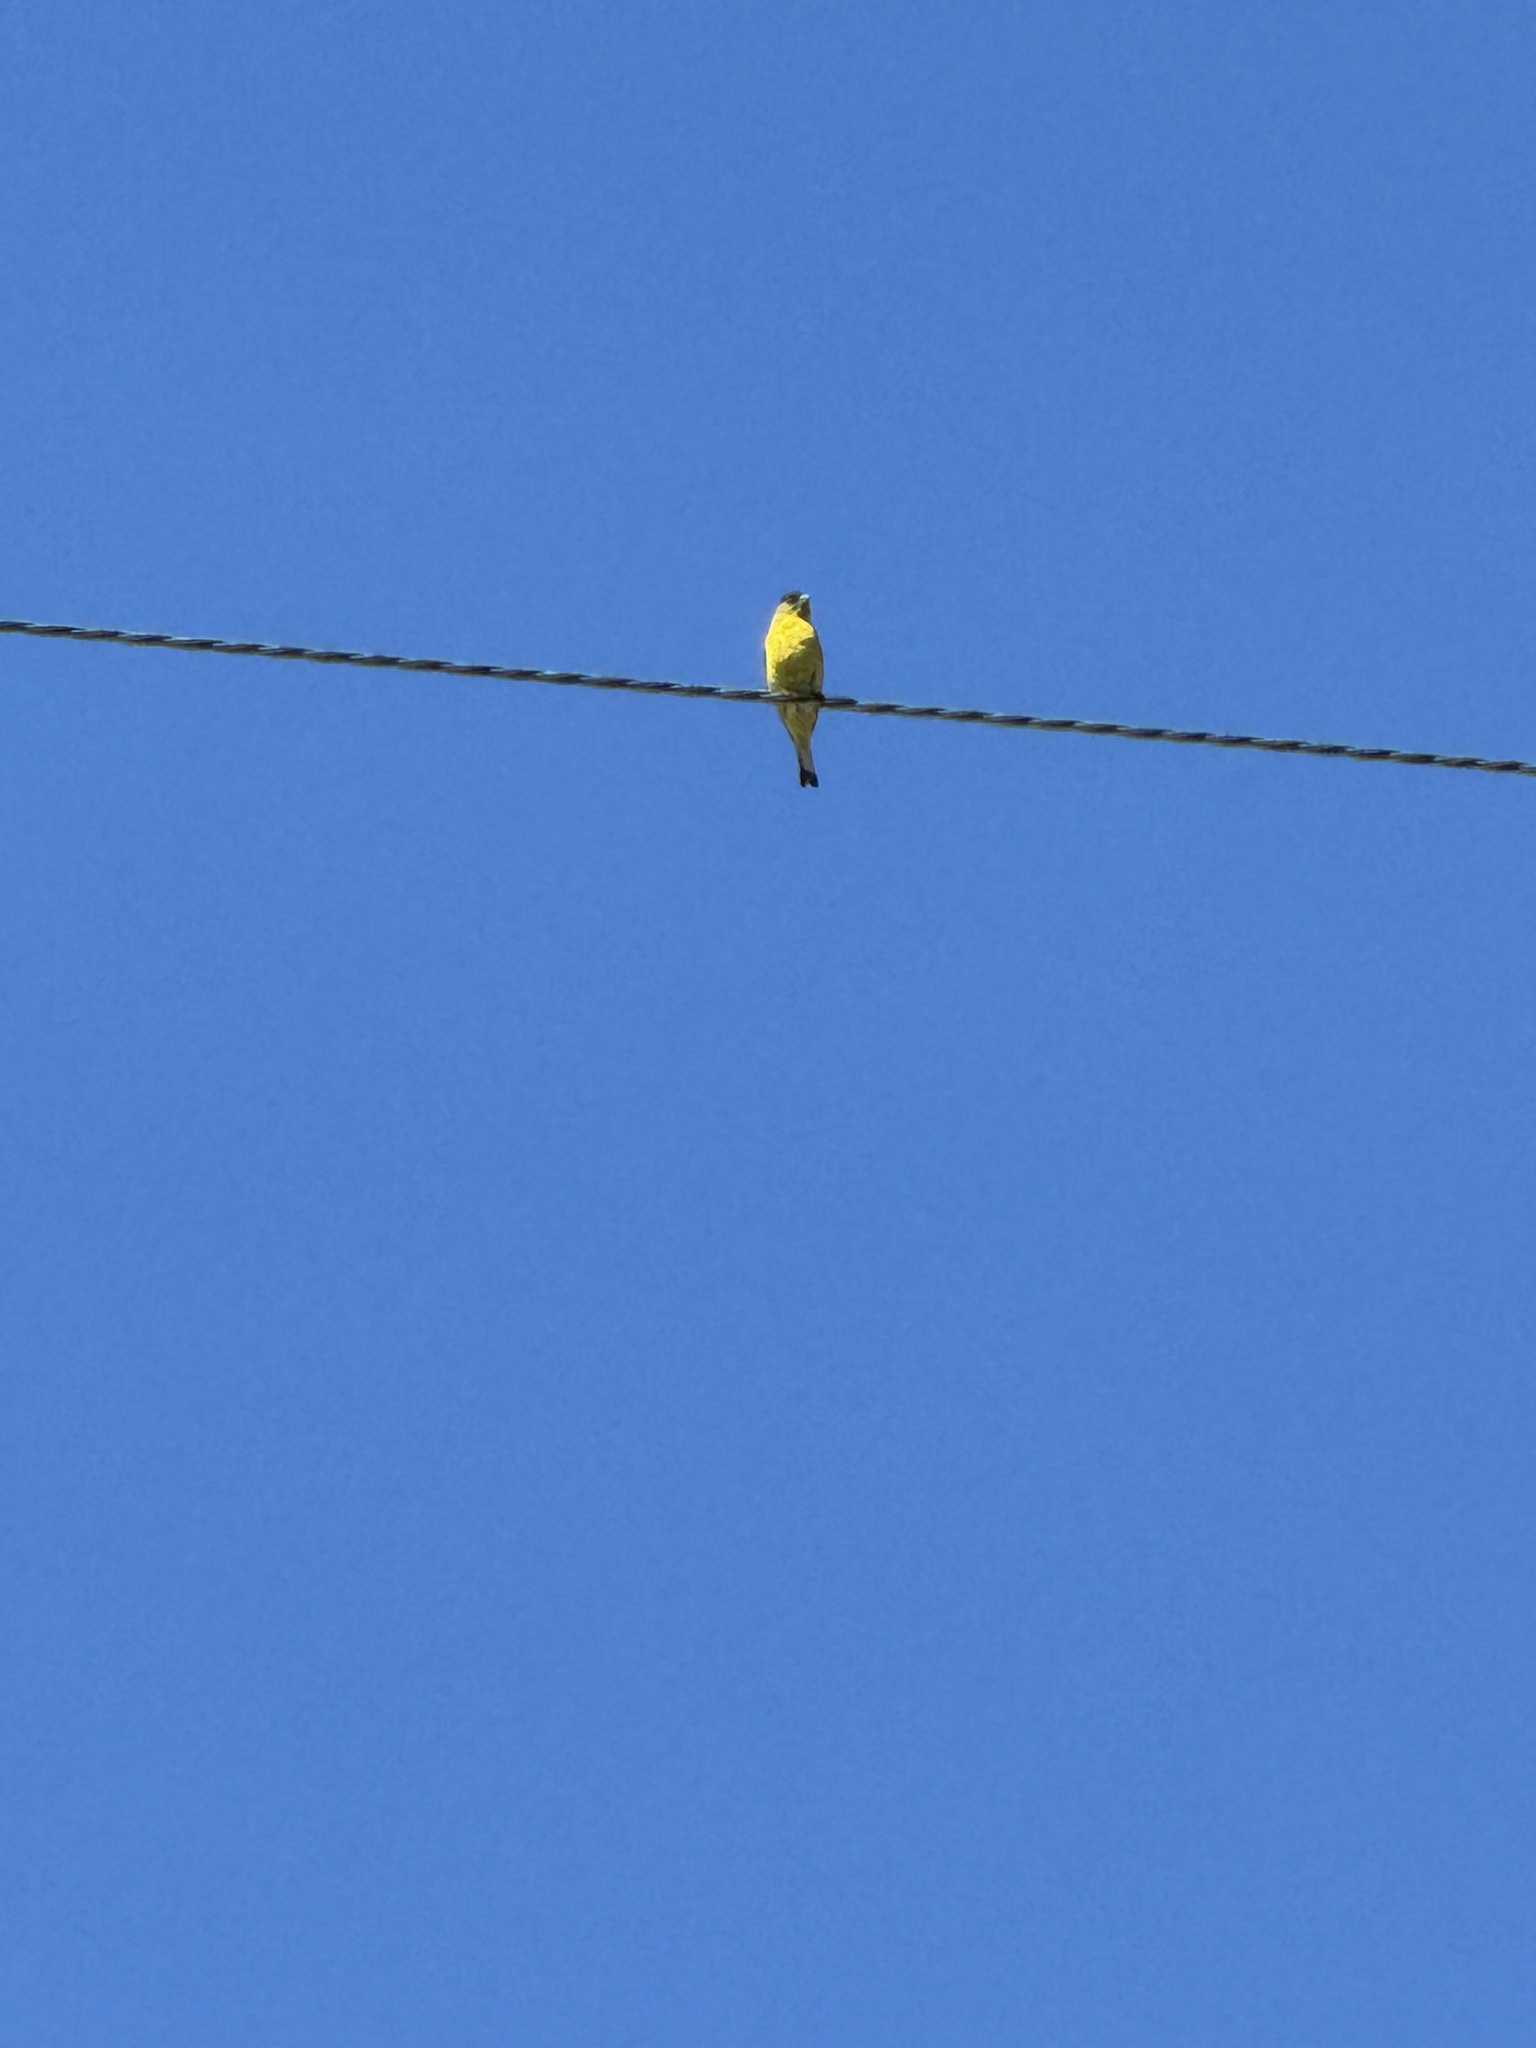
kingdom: Animalia
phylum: Chordata
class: Aves
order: Passeriformes
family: Fringillidae
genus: Spinus
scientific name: Spinus psaltria
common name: Lesser goldfinch
